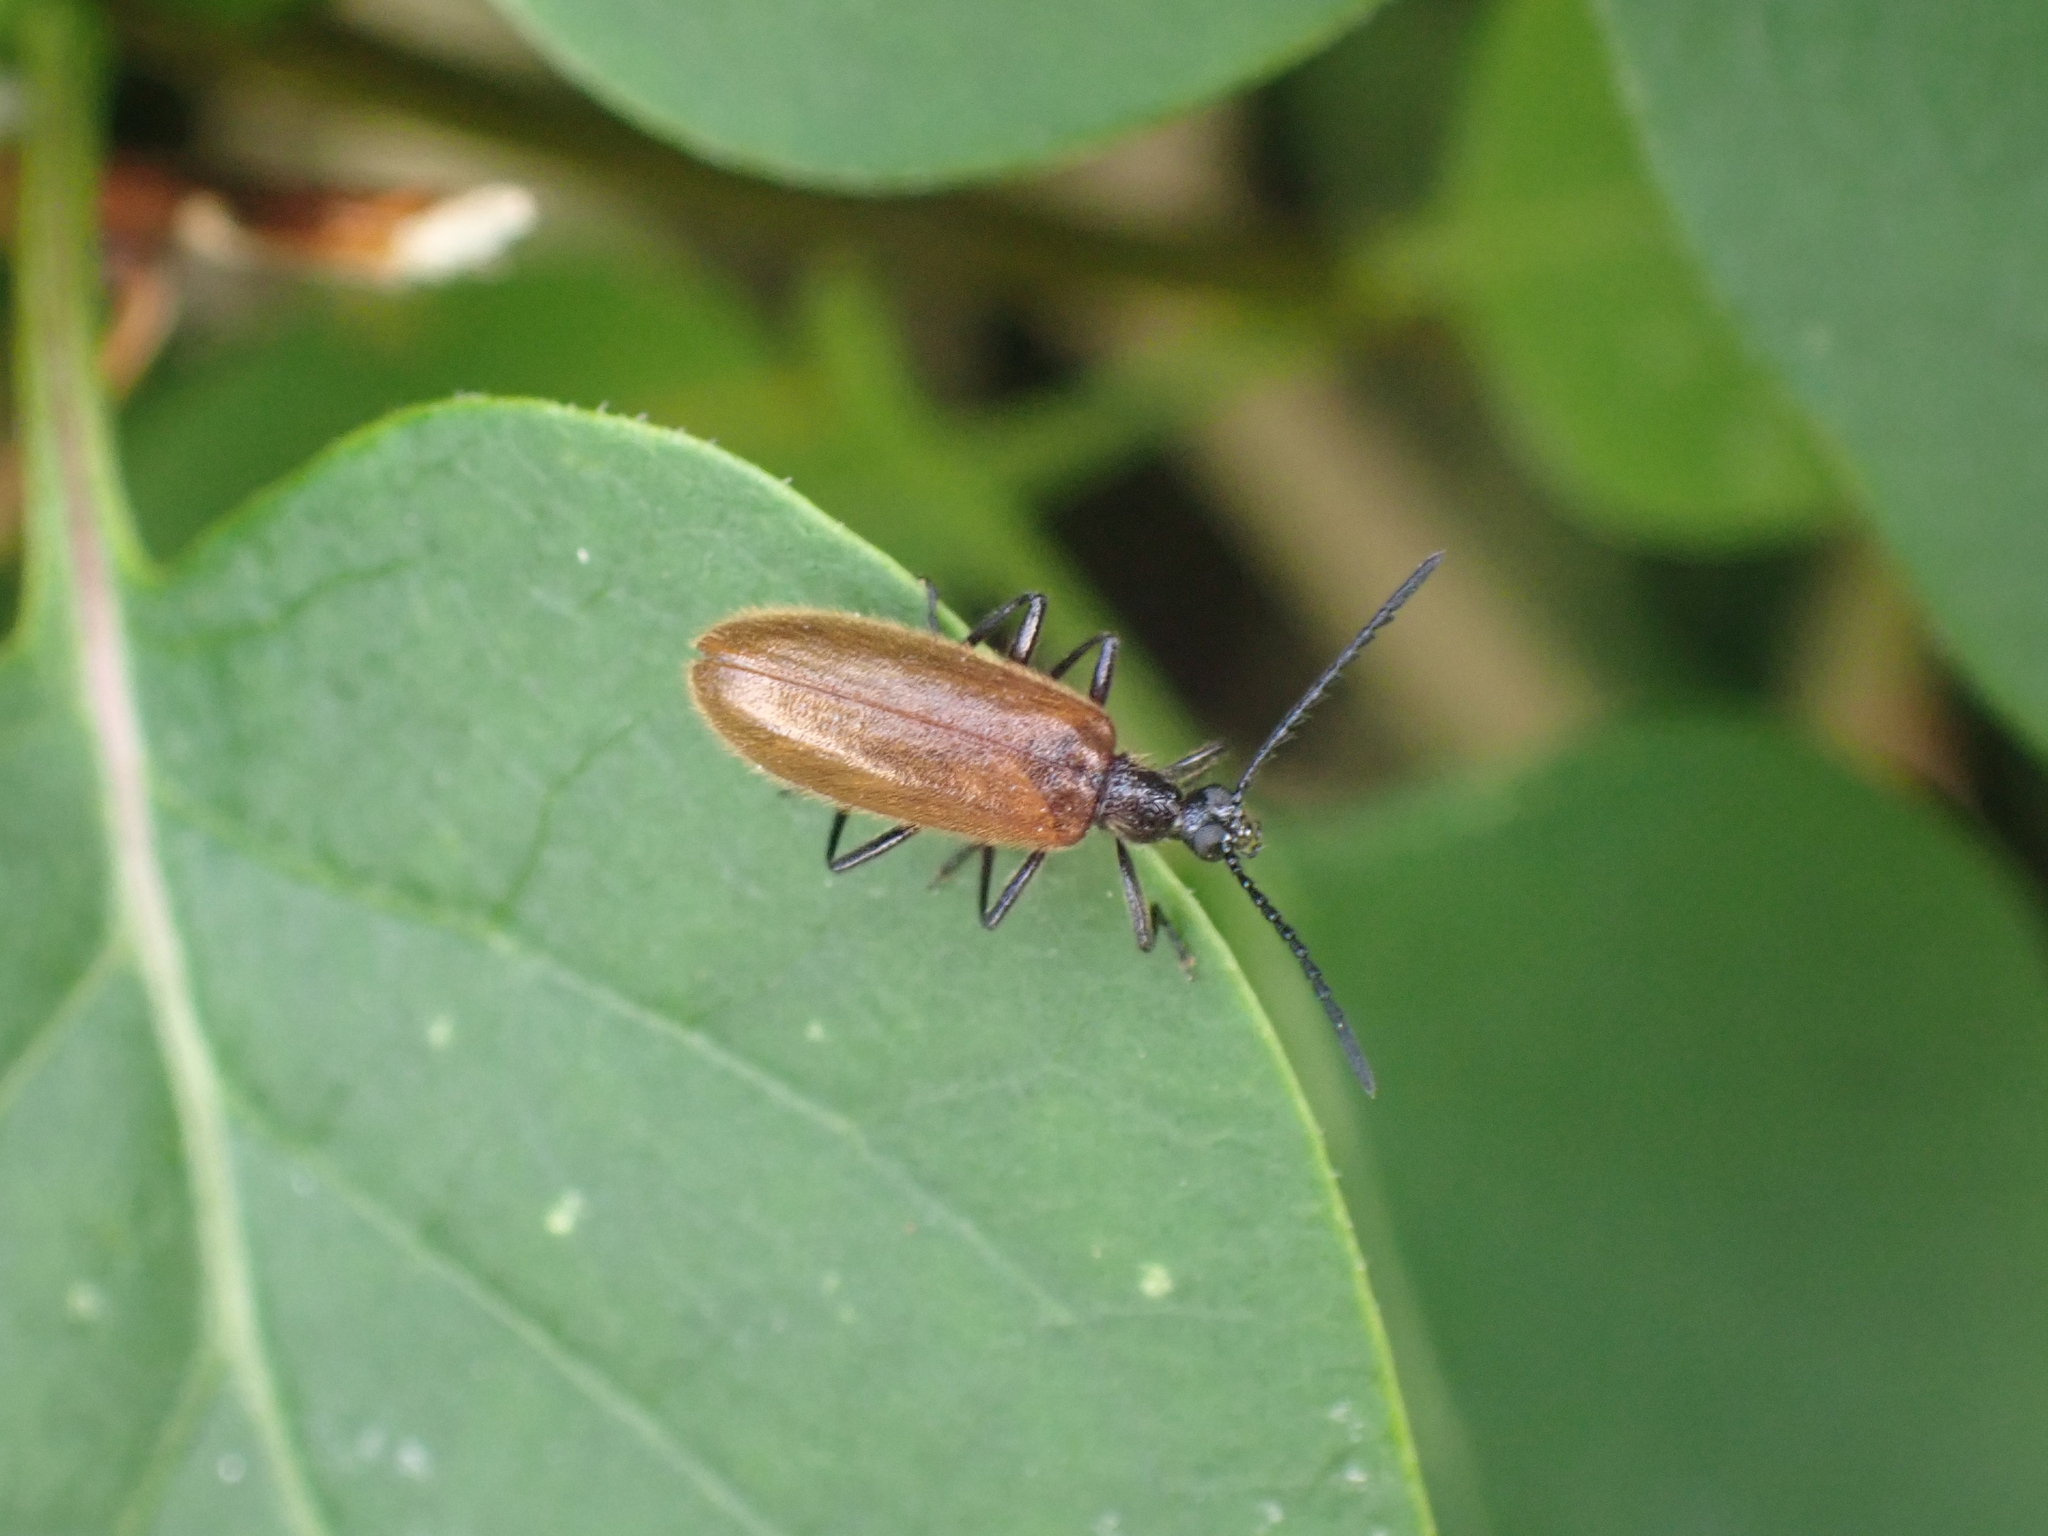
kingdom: Animalia
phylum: Arthropoda
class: Insecta
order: Coleoptera
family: Tenebrionidae
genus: Lagria
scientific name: Lagria hirta
